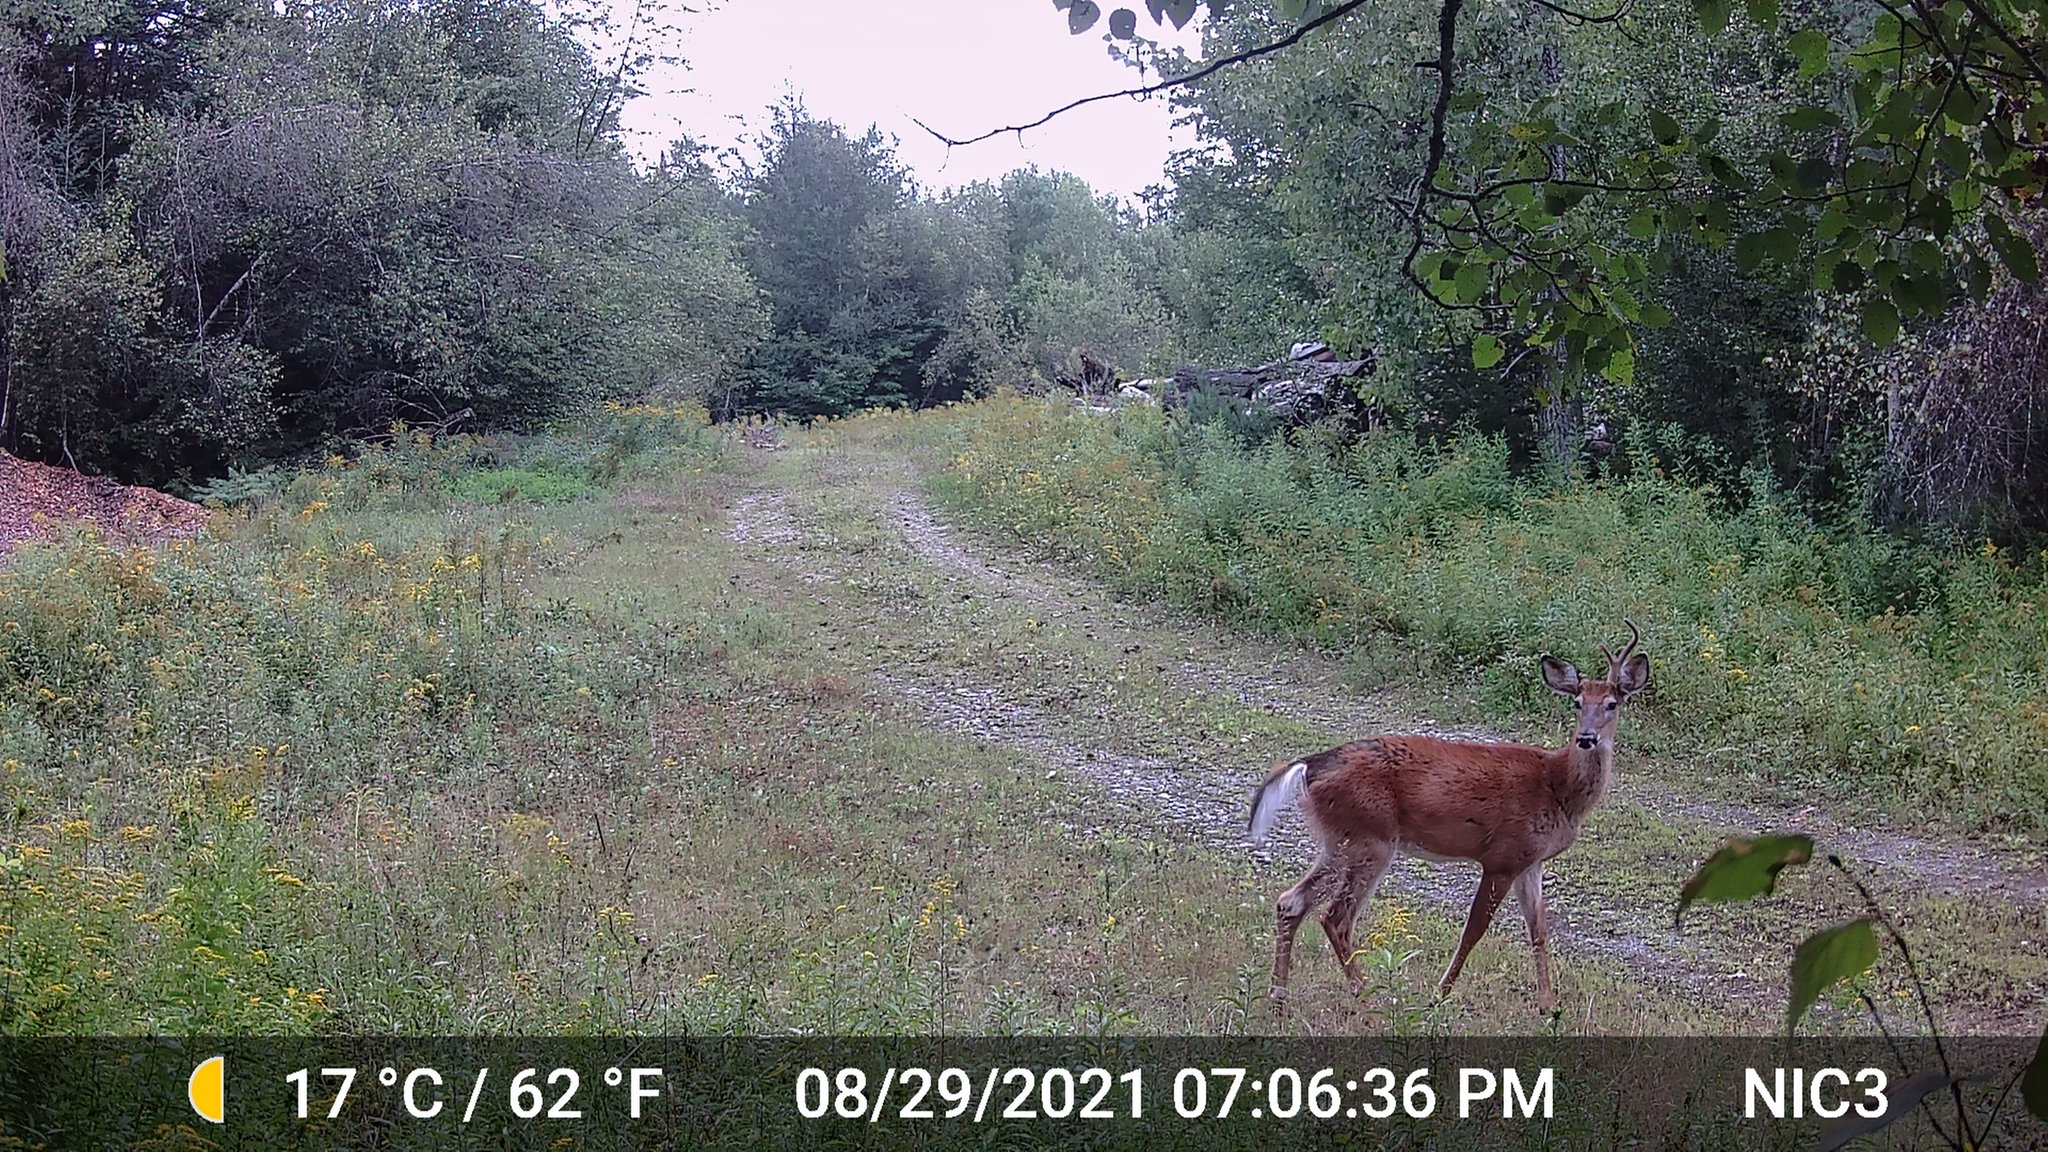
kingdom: Animalia
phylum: Chordata
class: Mammalia
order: Artiodactyla
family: Cervidae
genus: Odocoileus
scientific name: Odocoileus virginianus
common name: White-tailed deer
